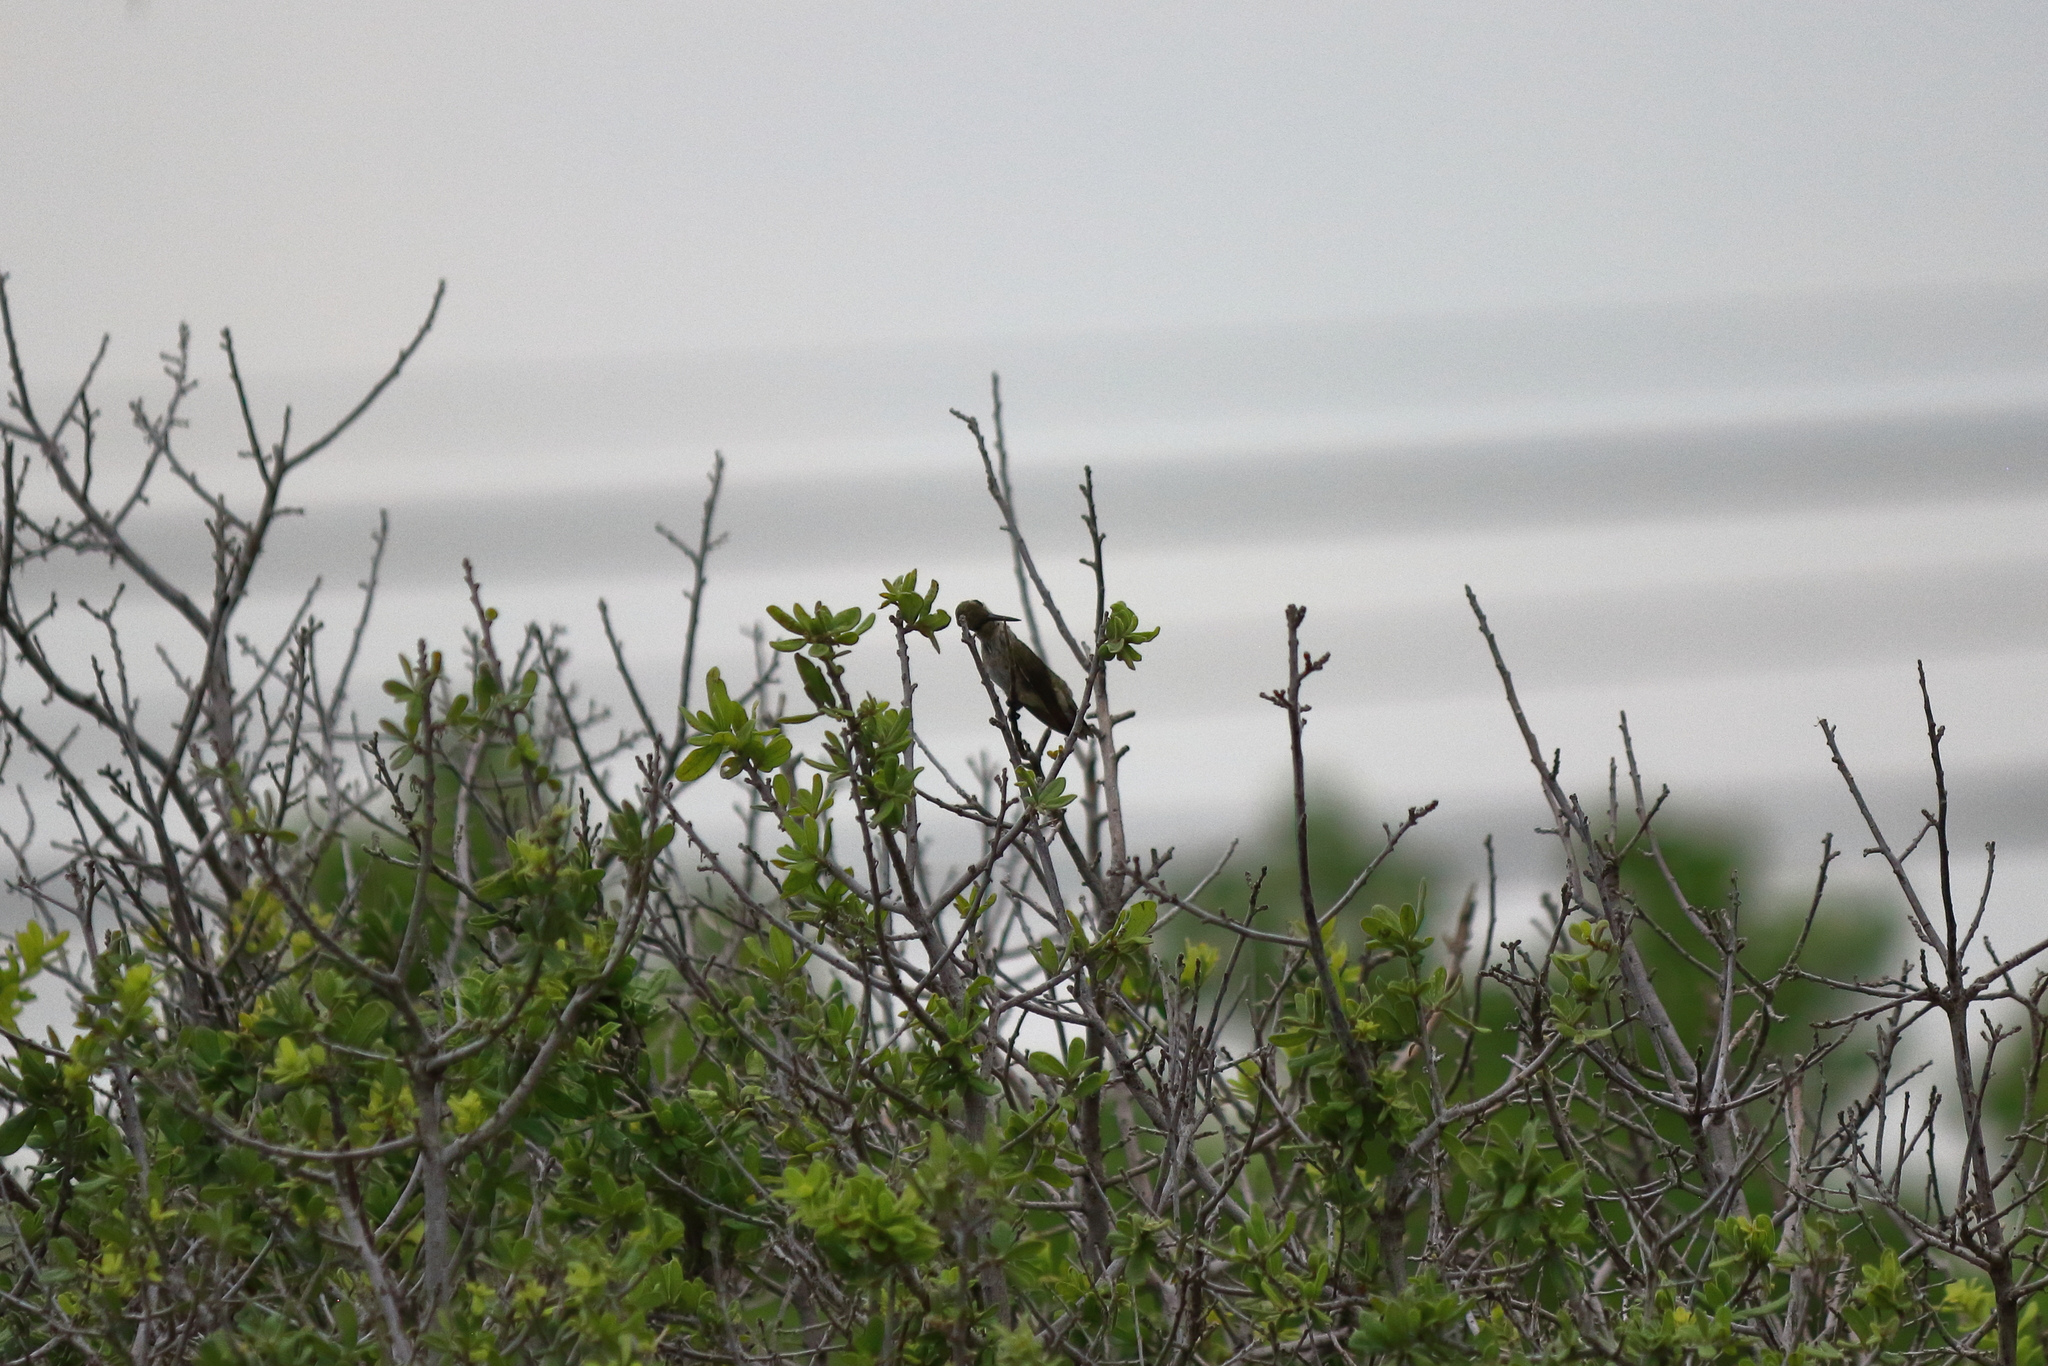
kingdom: Animalia
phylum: Chordata
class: Aves
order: Apodiformes
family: Trochilidae
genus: Archilochus
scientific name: Archilochus alexandri
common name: Black-chinned hummingbird
